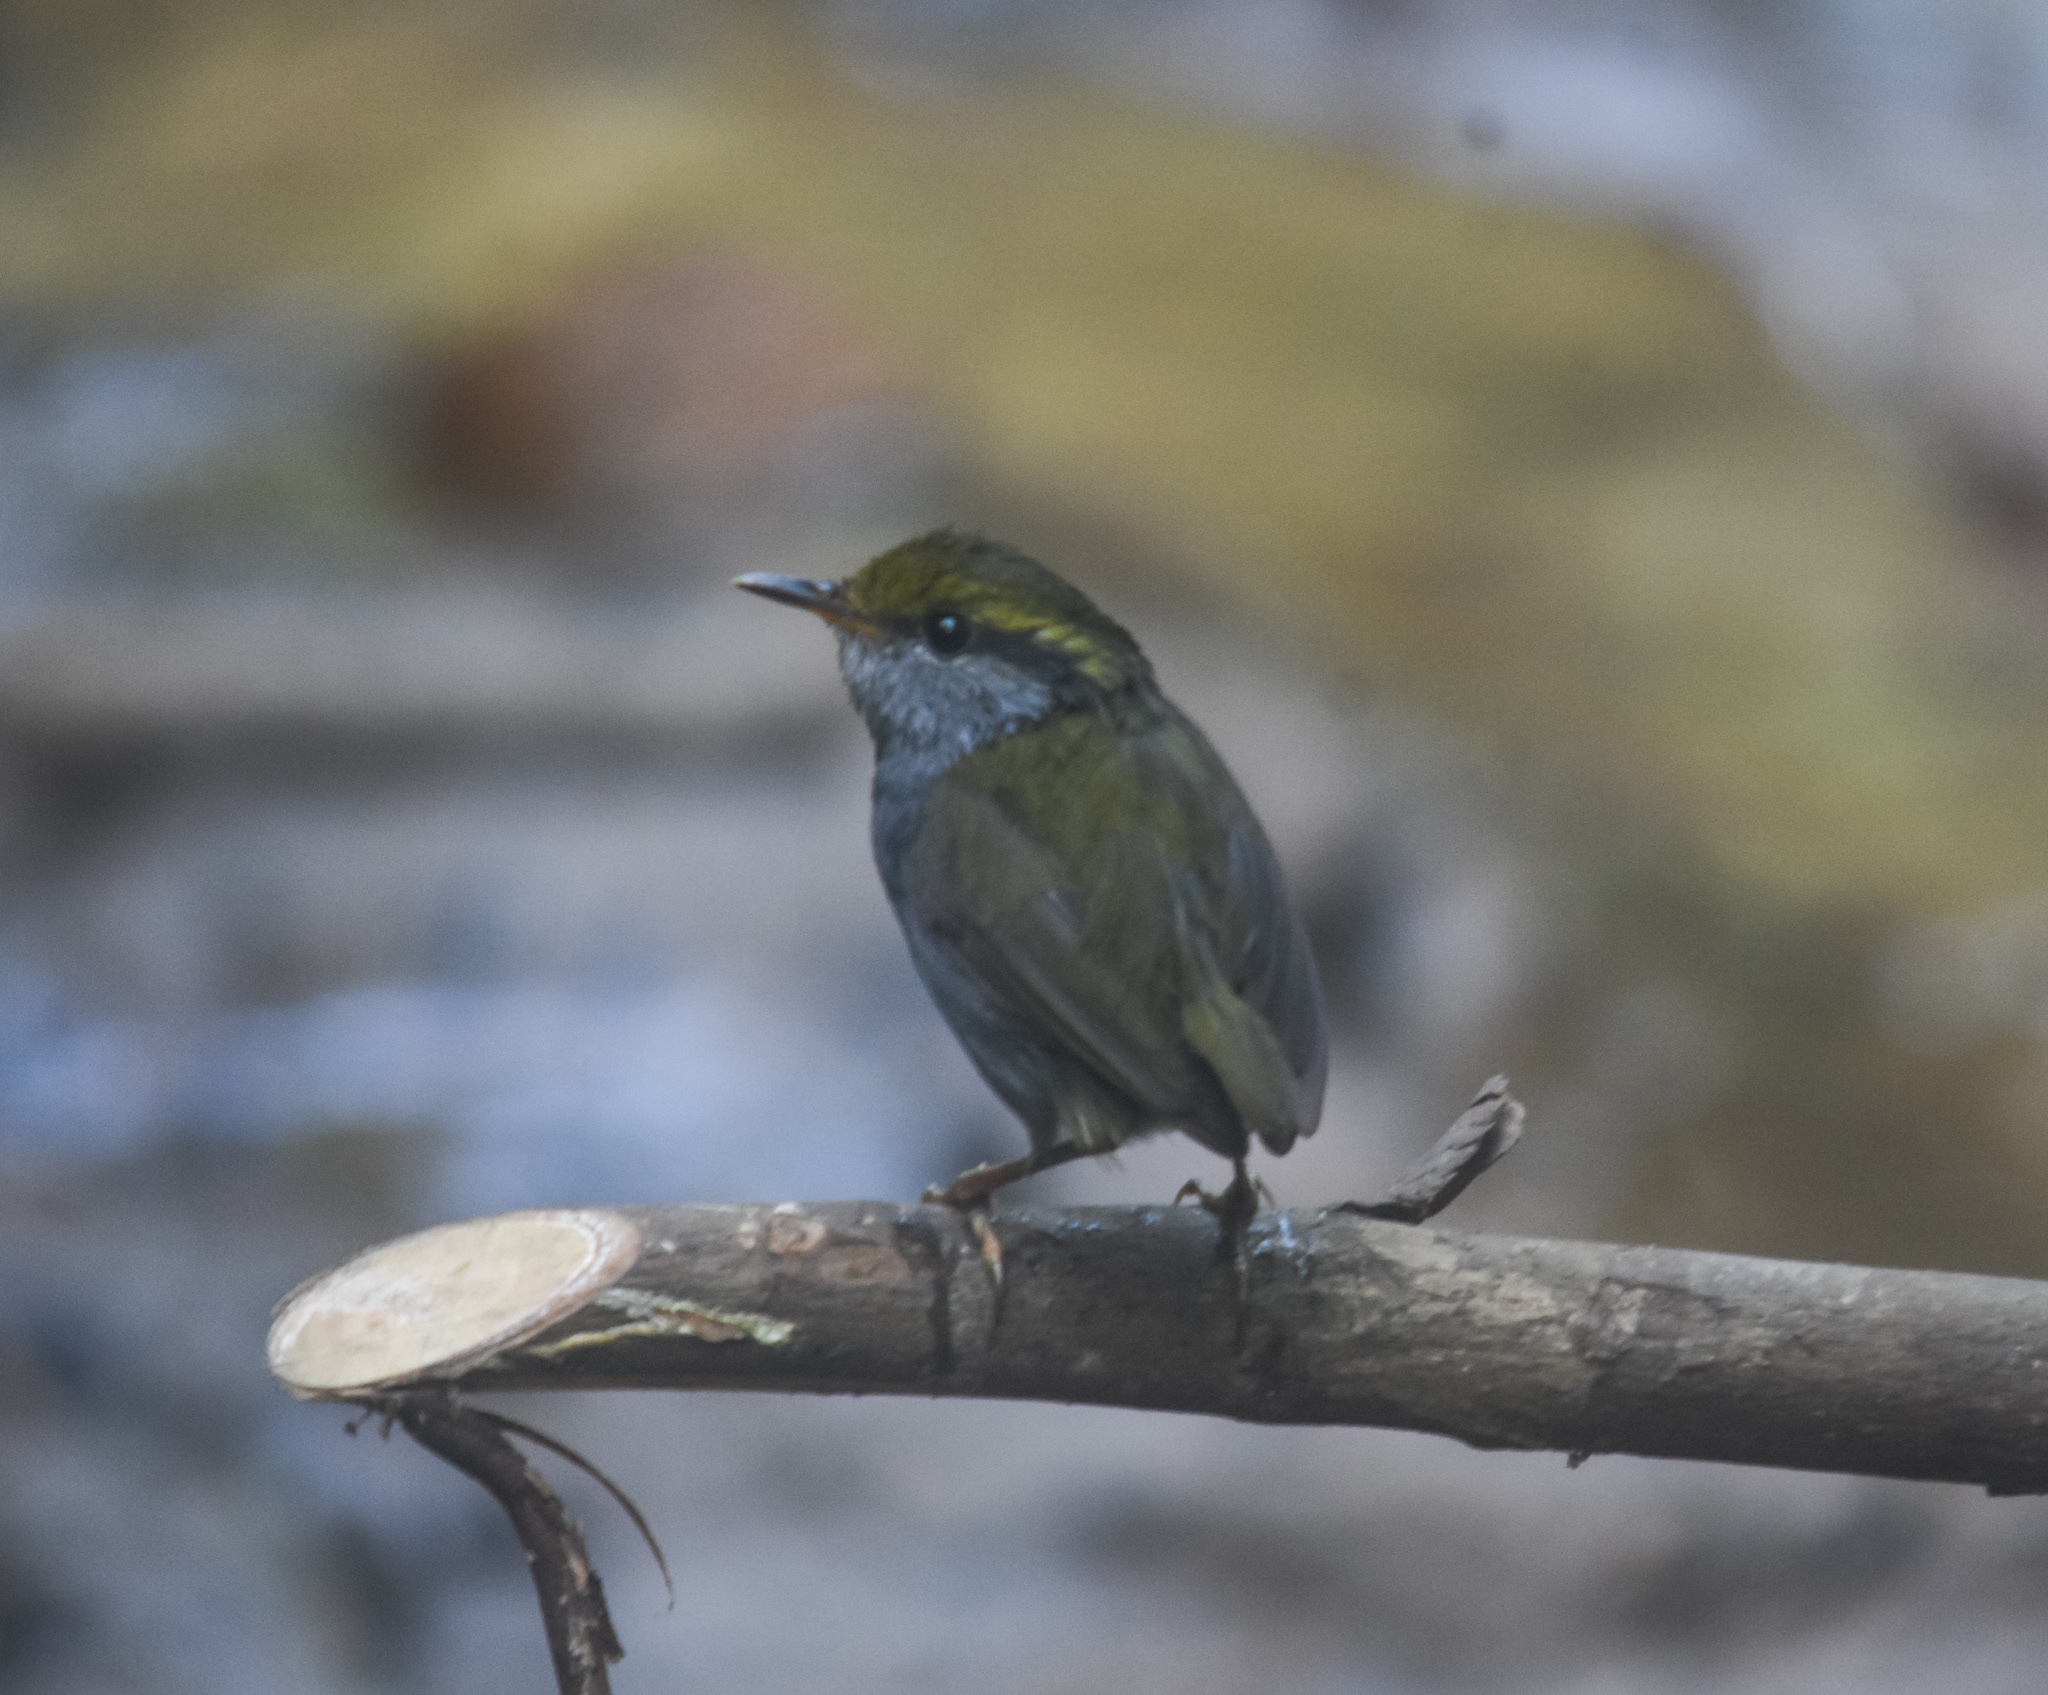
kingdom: Animalia
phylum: Chordata
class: Aves
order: Passeriformes
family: Cettiidae
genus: Tesia
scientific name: Tesia cyaniventer
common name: Grey-bellied tesia
